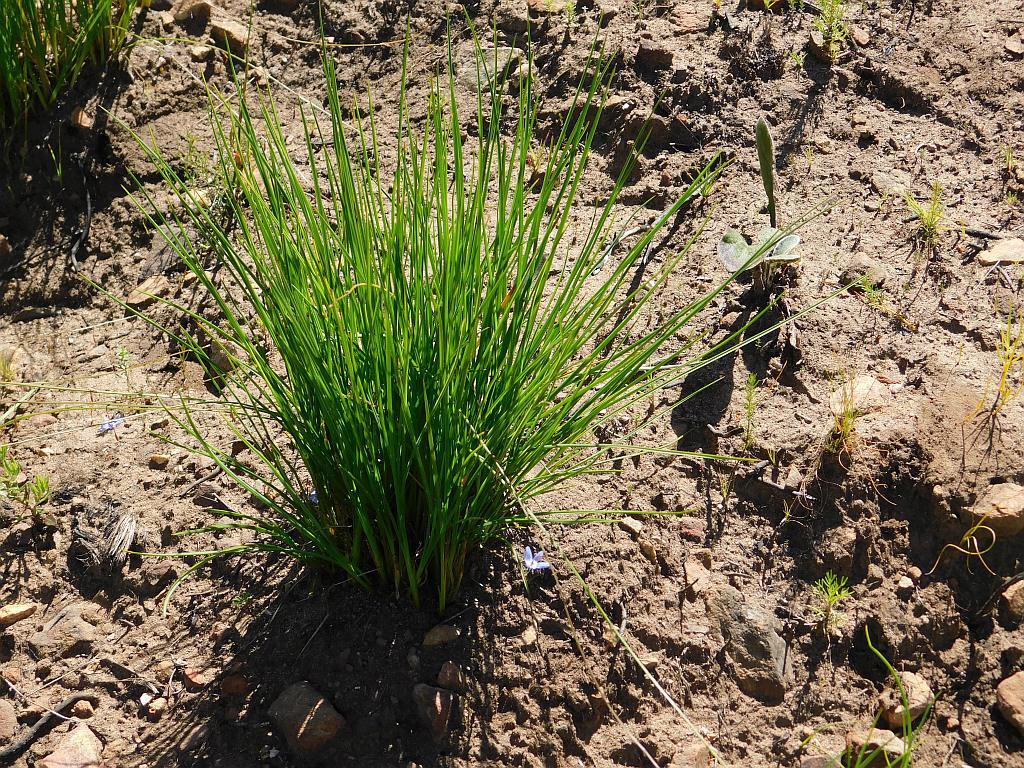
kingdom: Plantae
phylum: Tracheophyta
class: Liliopsida
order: Asparagales
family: Asphodelaceae
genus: Caesia
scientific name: Caesia contorta
